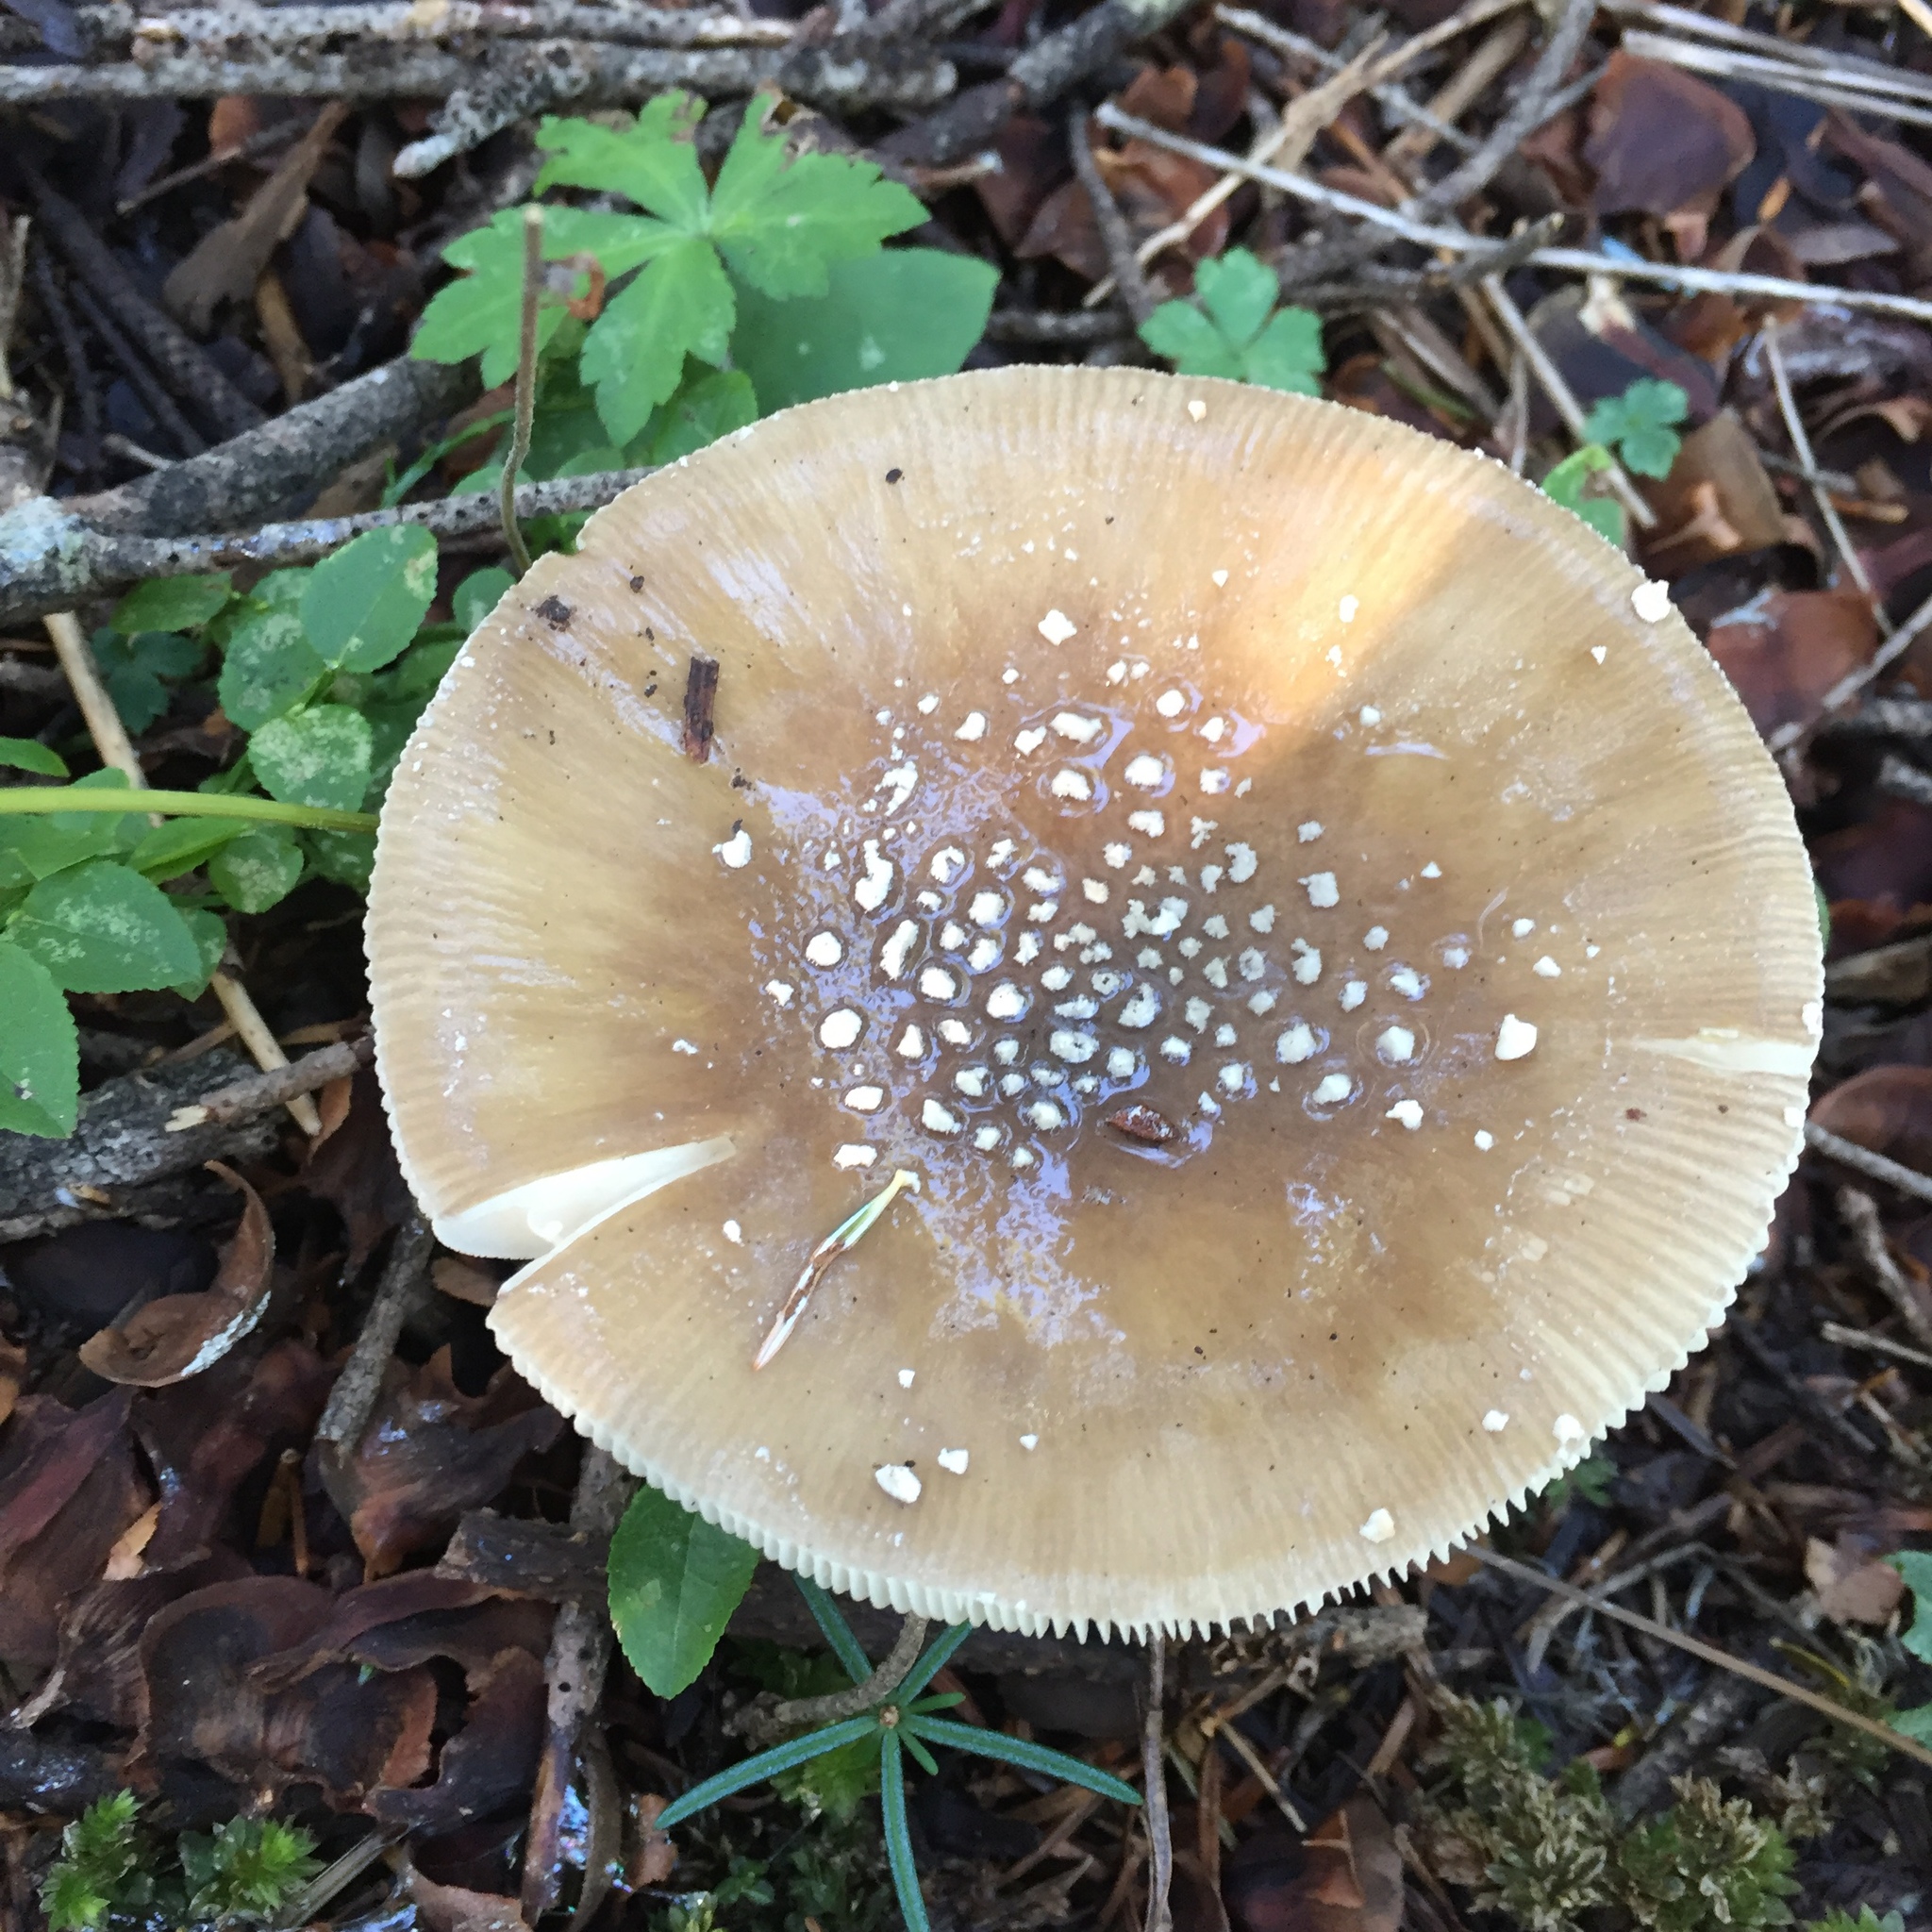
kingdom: Fungi
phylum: Basidiomycota
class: Agaricomycetes
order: Agaricales
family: Amanitaceae
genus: Amanita
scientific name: Amanita pantherina
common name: Panthercap
